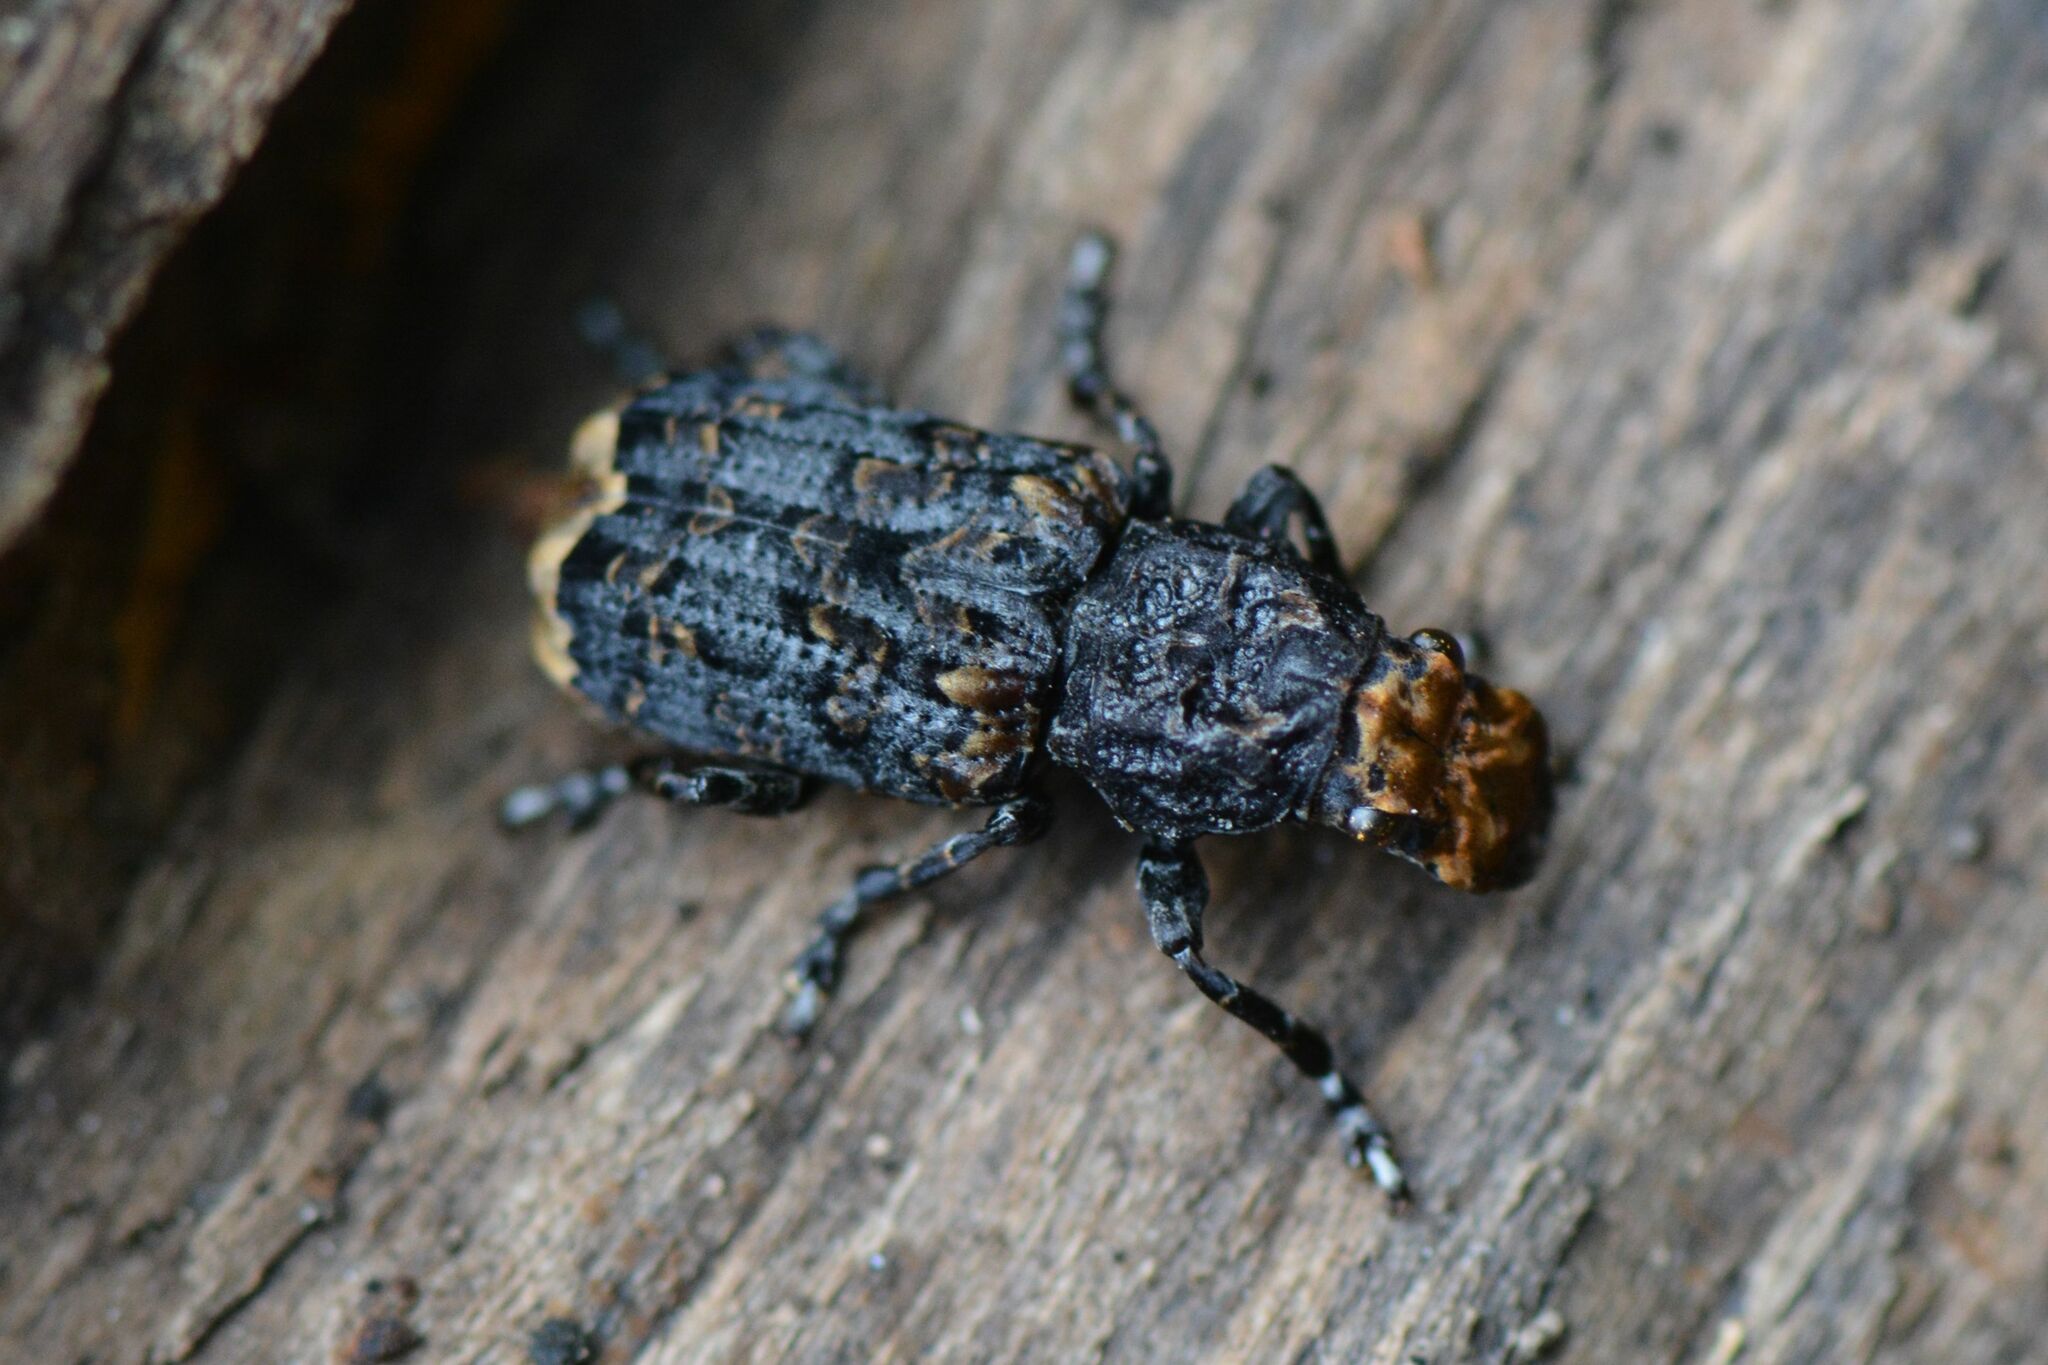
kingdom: Animalia
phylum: Arthropoda
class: Insecta
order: Coleoptera
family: Anthribidae
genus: Platyrhinus
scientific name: Platyrhinus resinosus
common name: Cramp-ball fungus weevil
